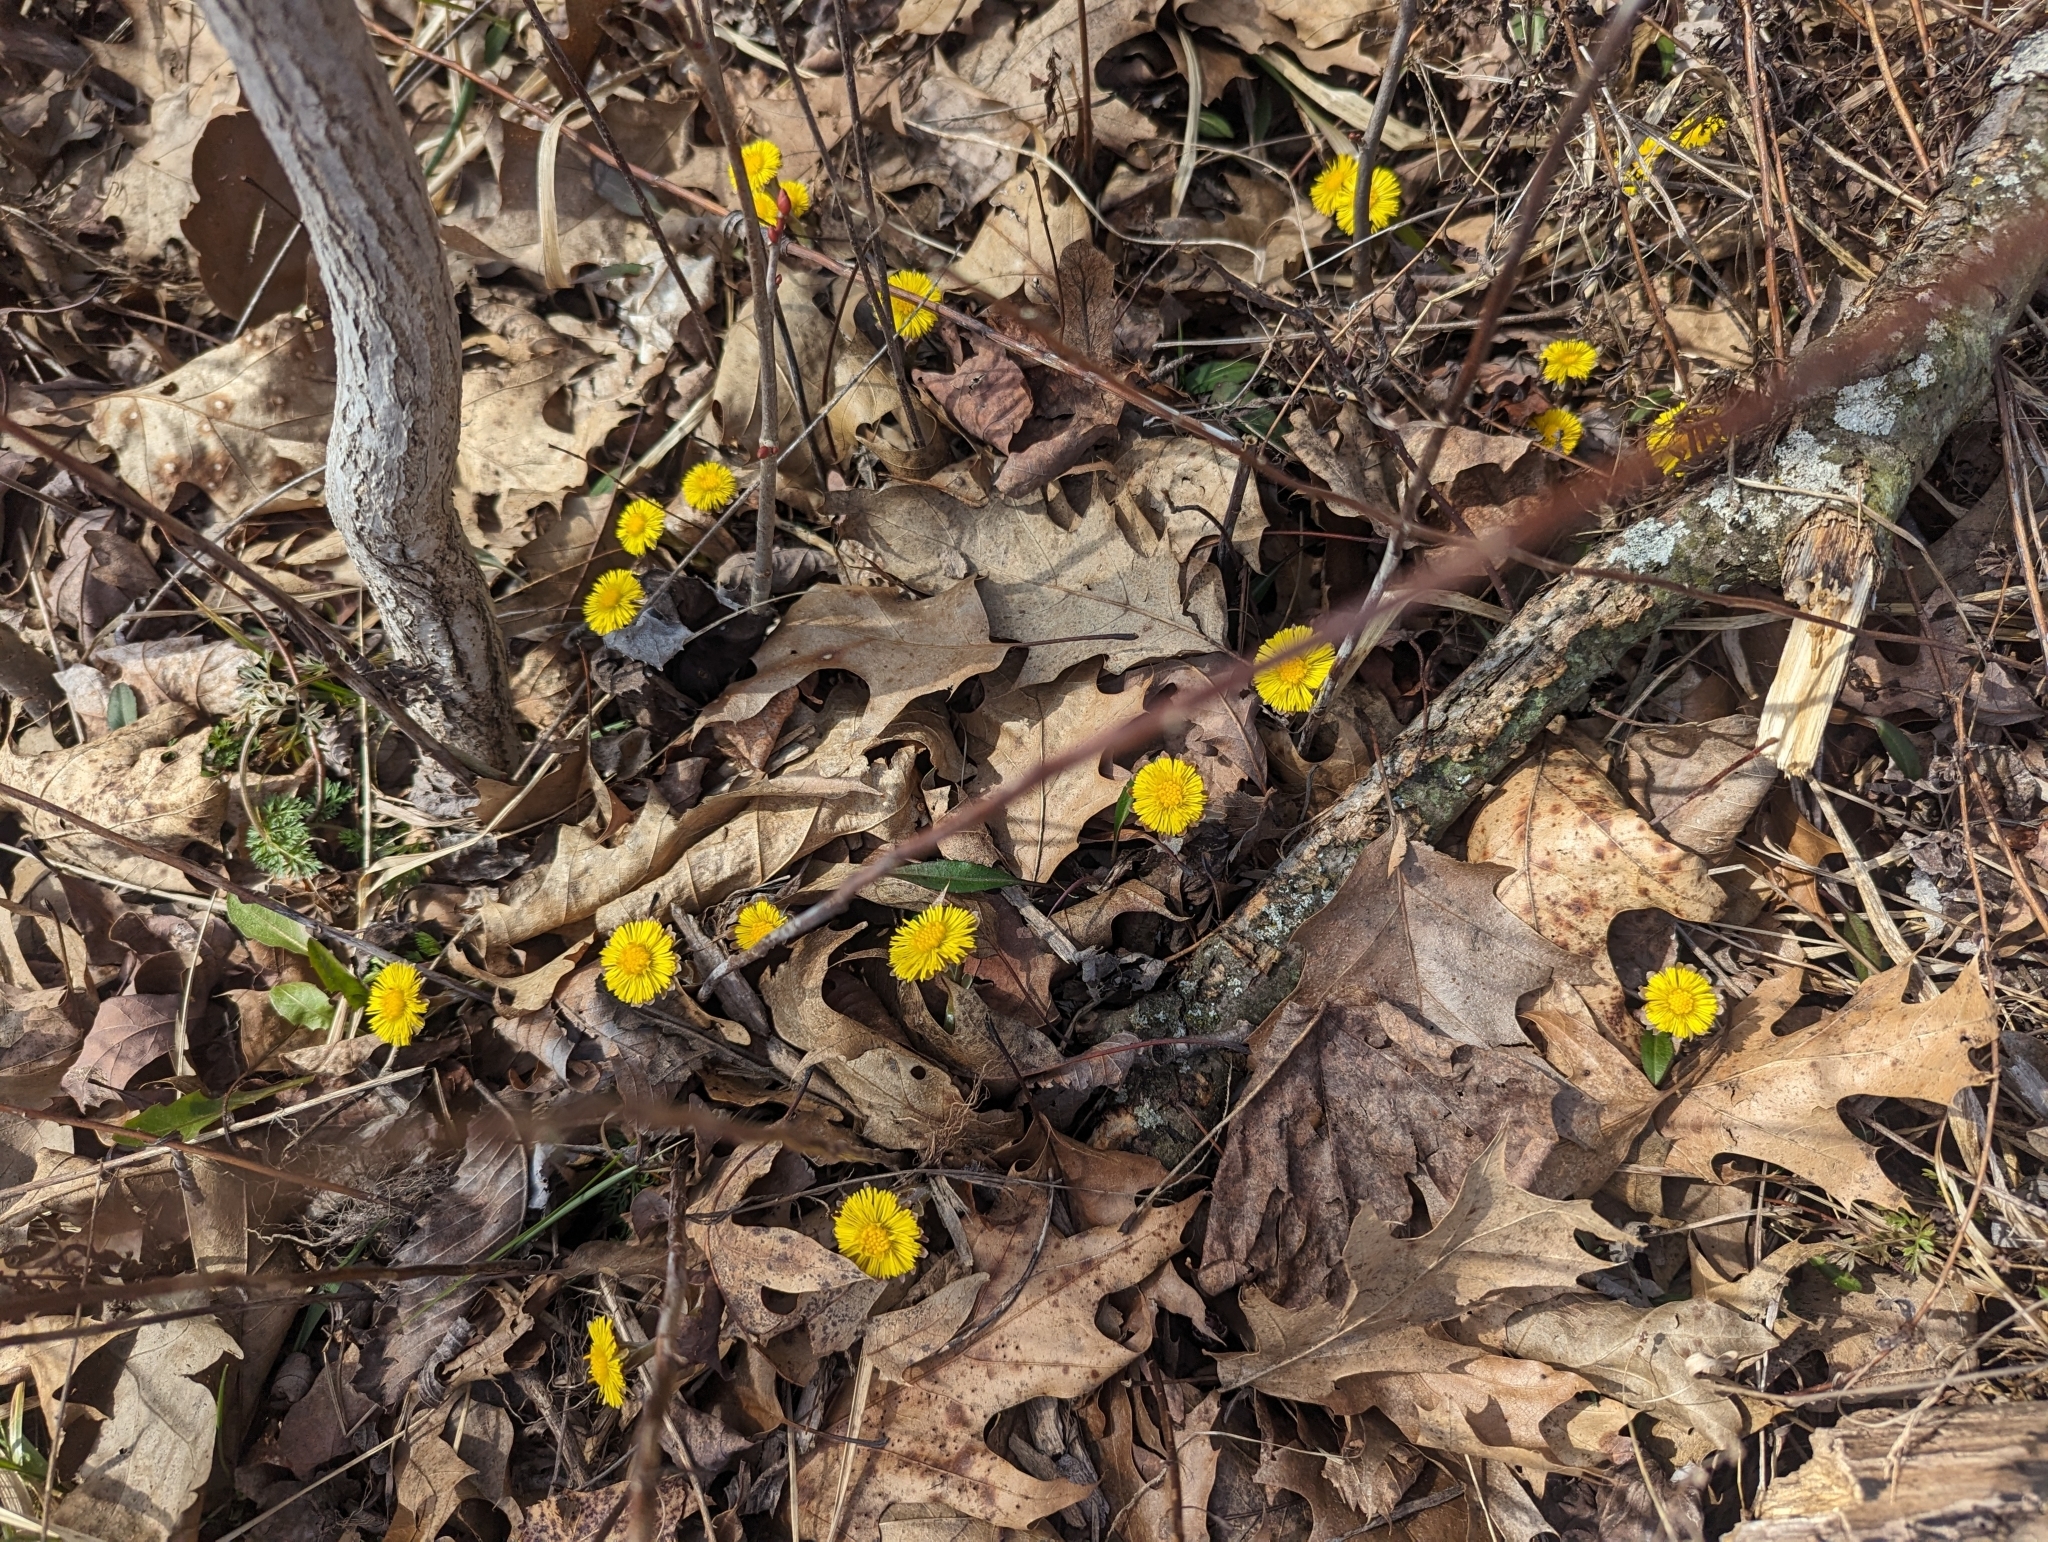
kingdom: Plantae
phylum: Tracheophyta
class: Magnoliopsida
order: Asterales
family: Asteraceae
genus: Tussilago
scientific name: Tussilago farfara
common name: Coltsfoot
